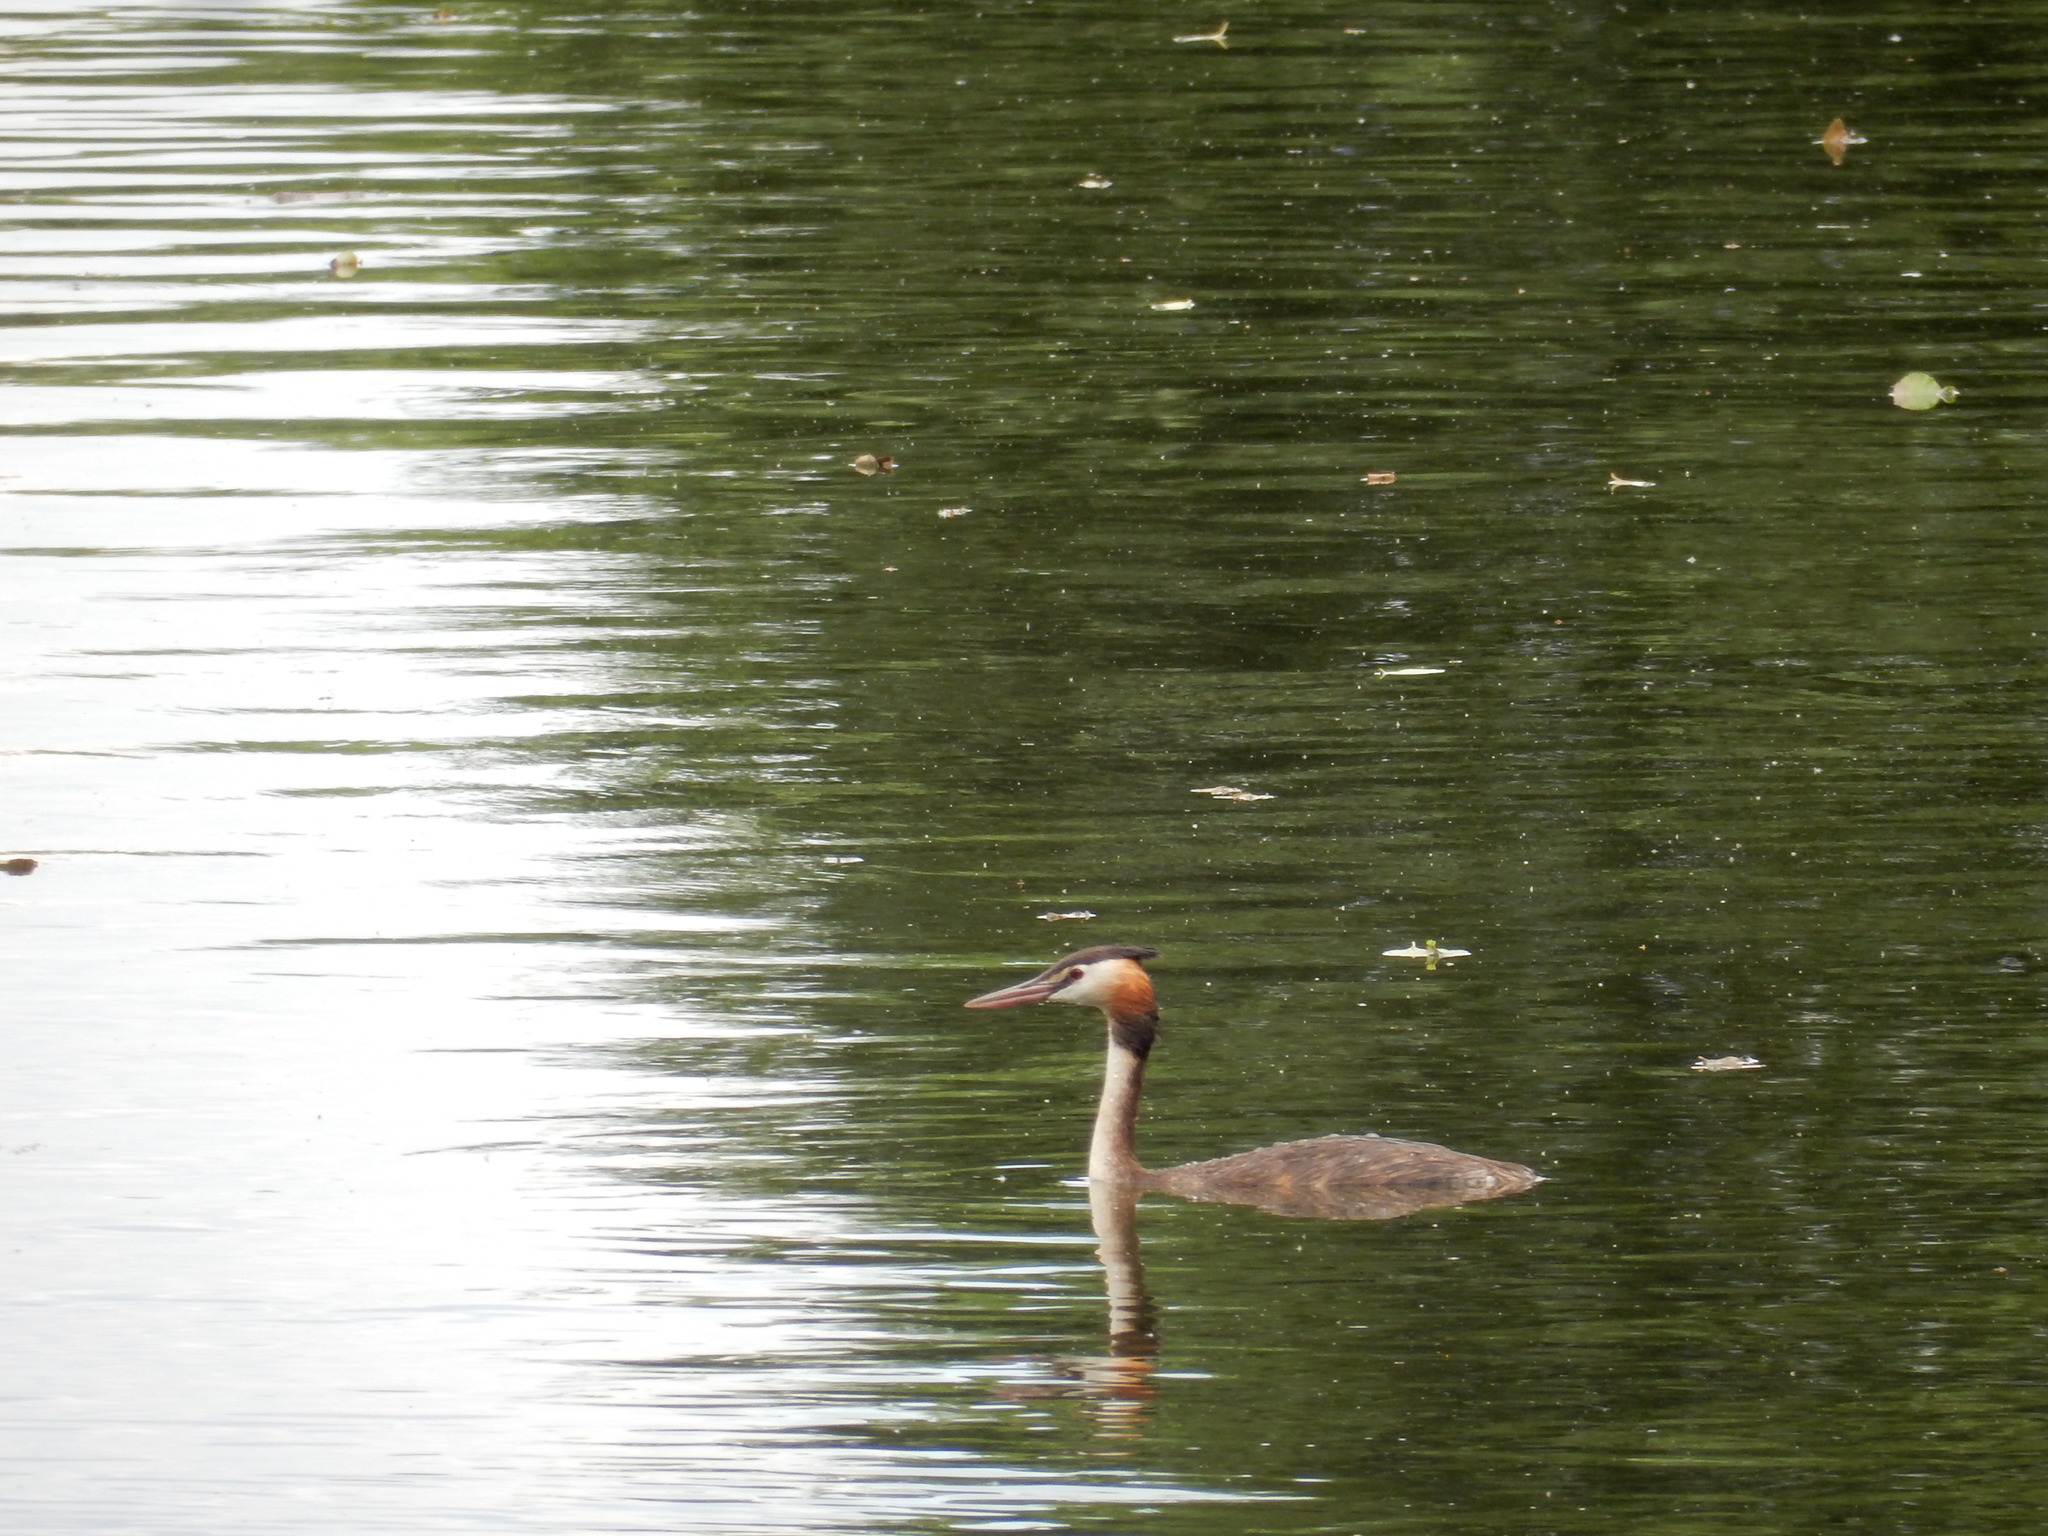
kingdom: Animalia
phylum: Chordata
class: Aves
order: Podicipediformes
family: Podicipedidae
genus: Podiceps
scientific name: Podiceps cristatus
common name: Great crested grebe
